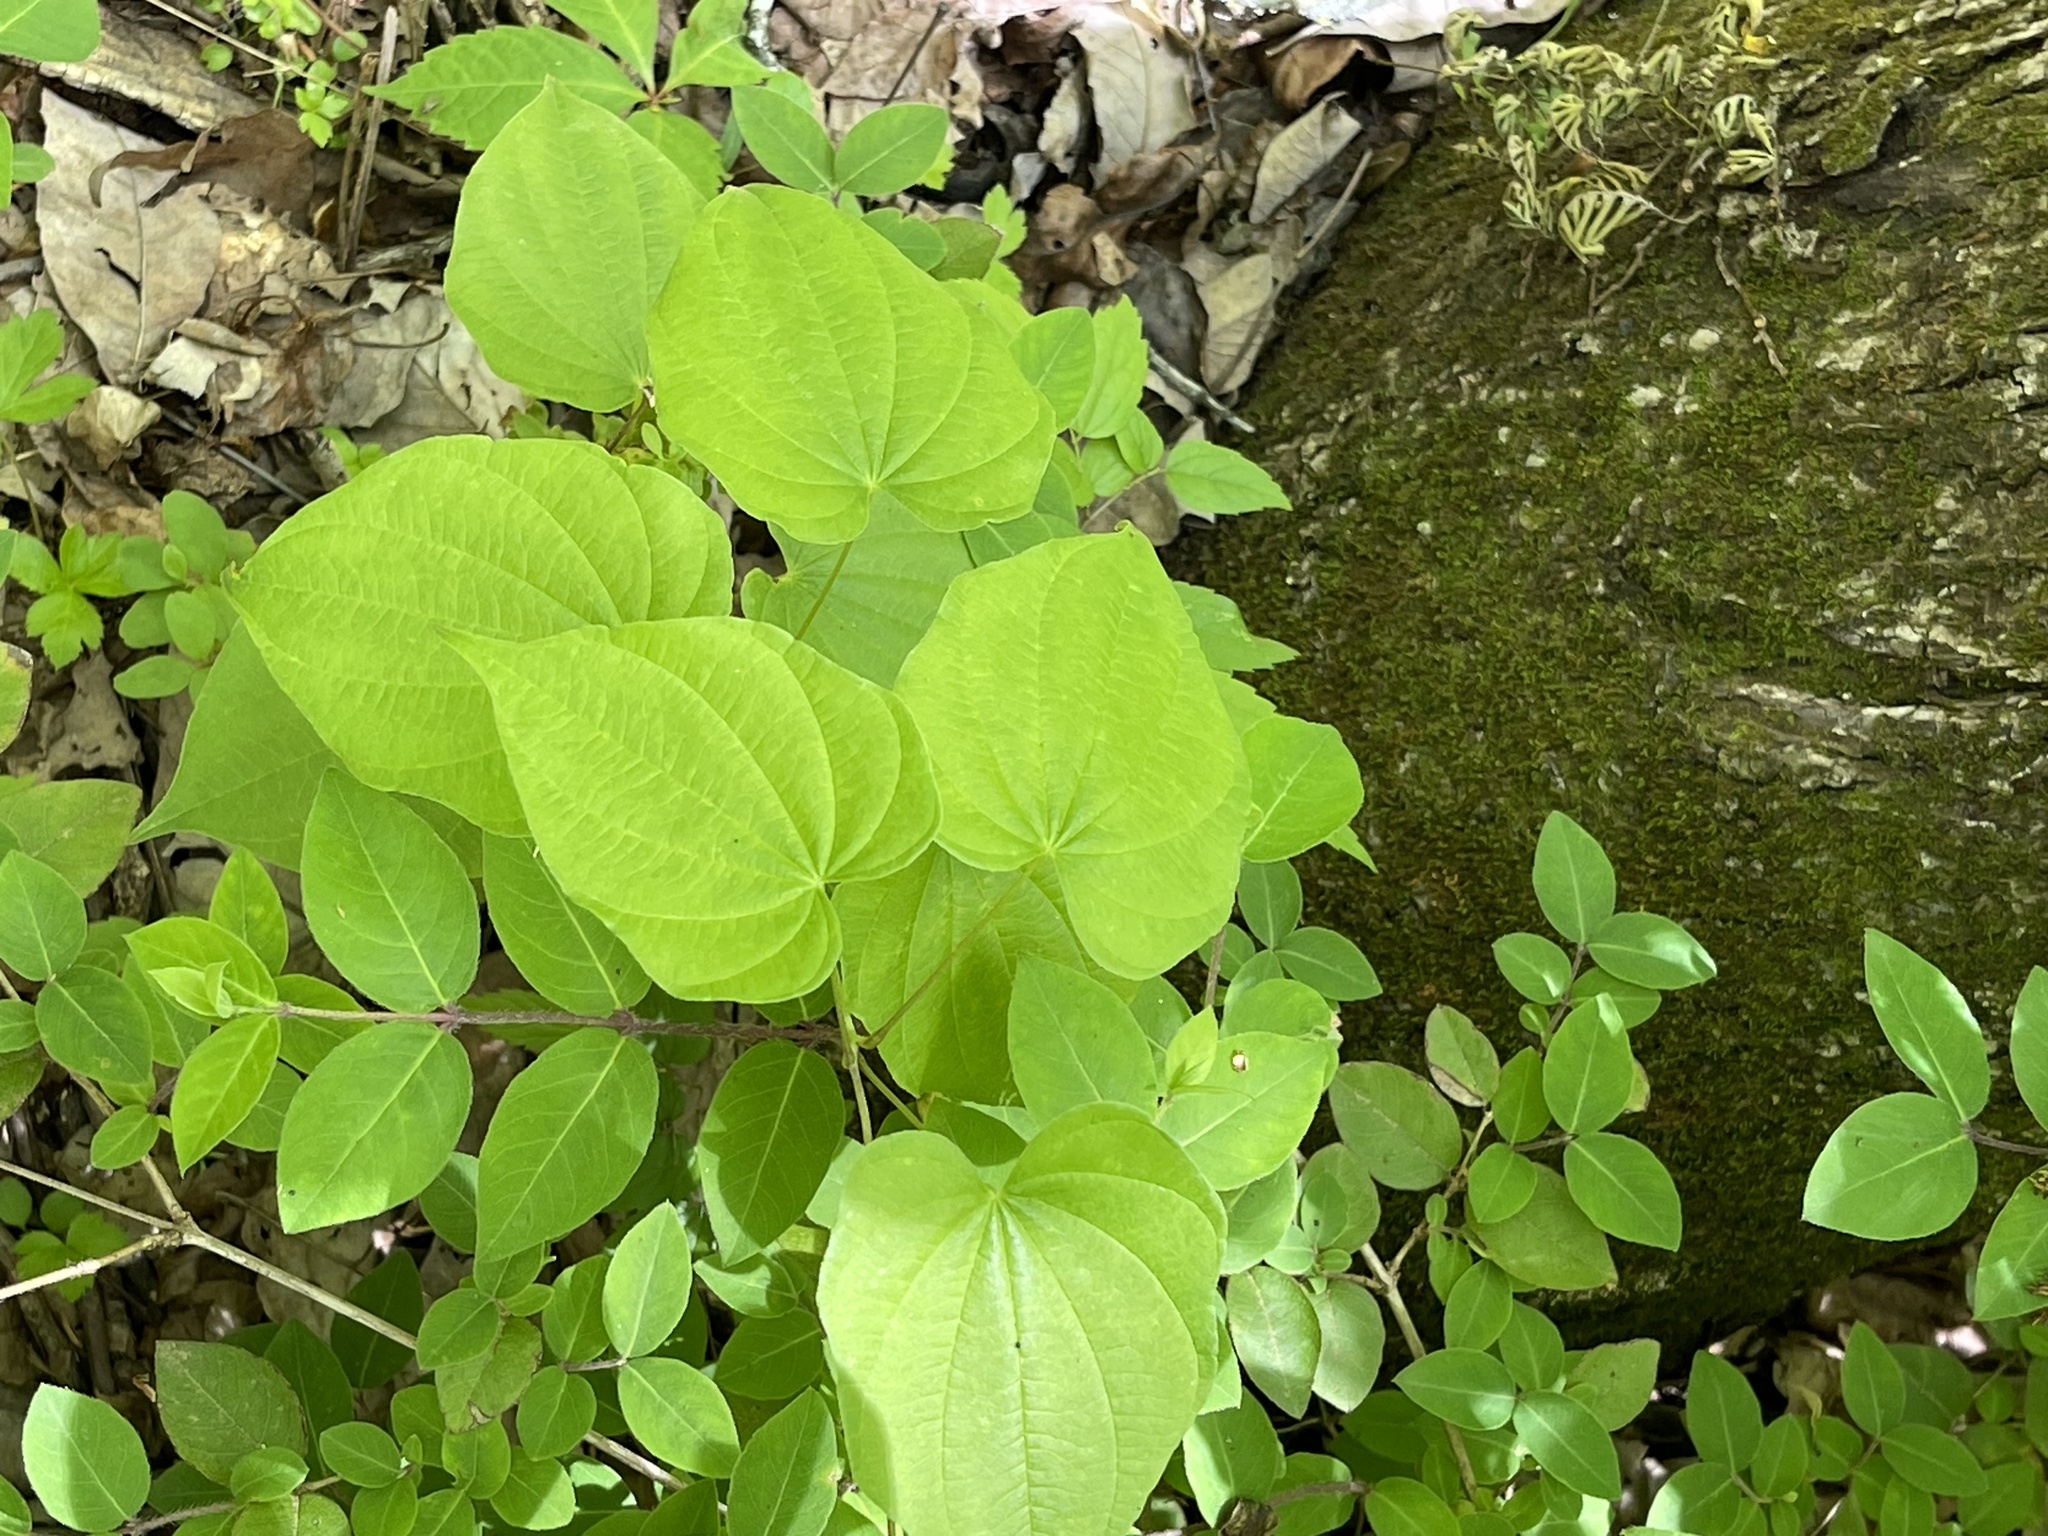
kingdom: Plantae
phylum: Tracheophyta
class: Liliopsida
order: Dioscoreales
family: Dioscoreaceae
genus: Dioscorea
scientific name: Dioscorea villosa
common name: Wild yam
